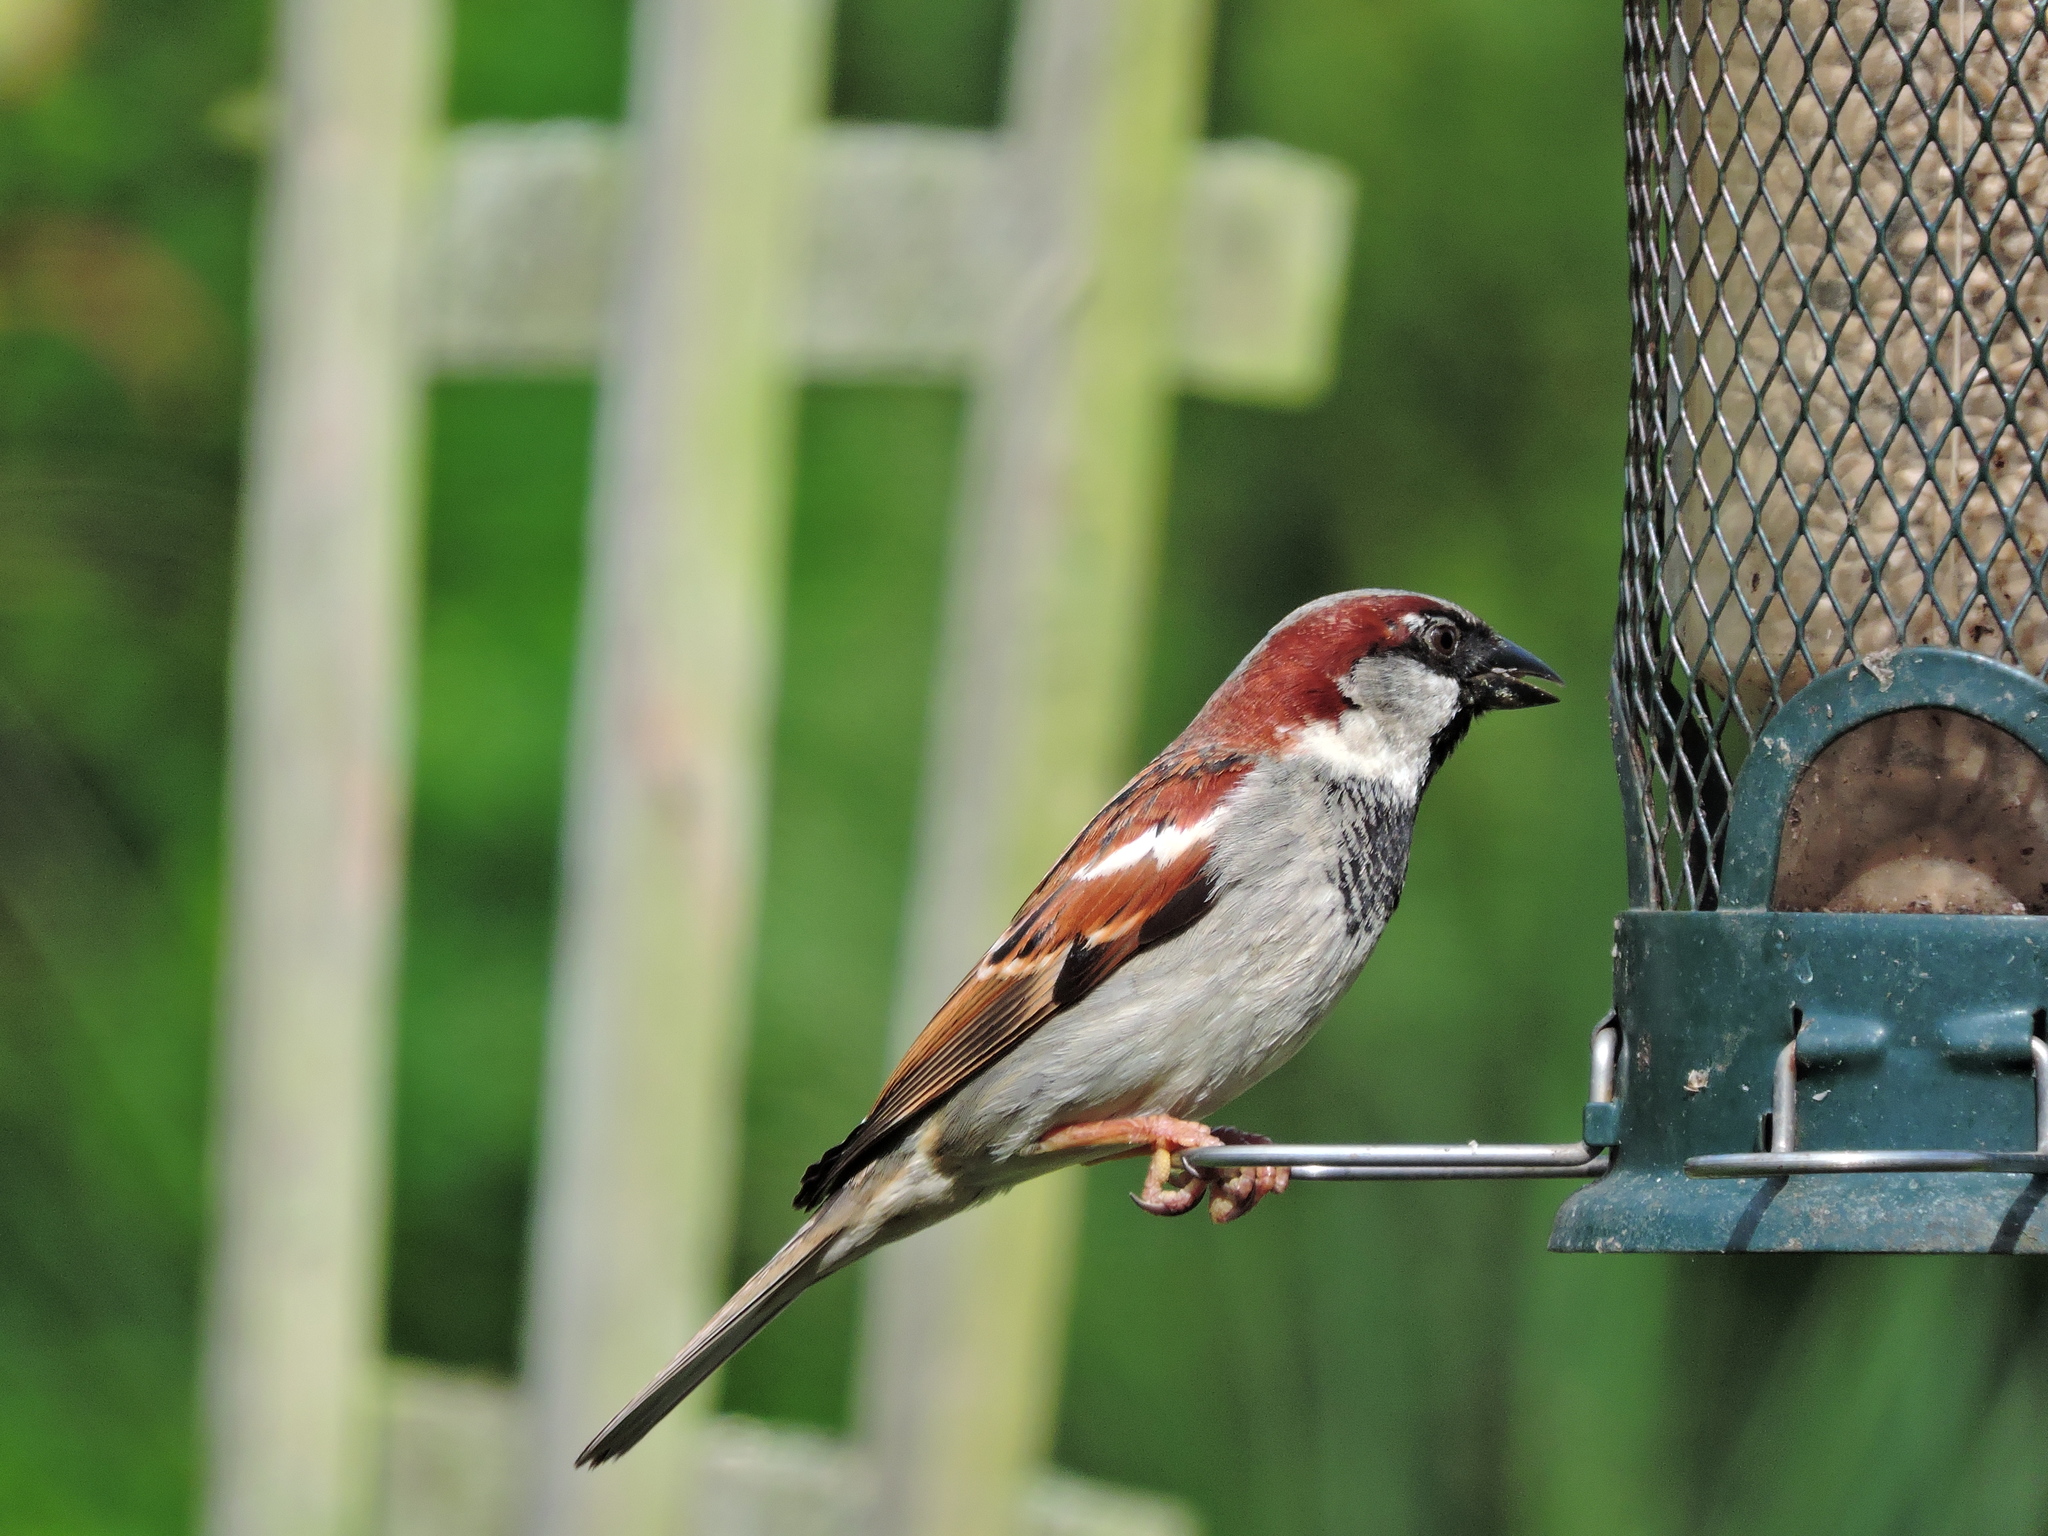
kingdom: Animalia
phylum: Chordata
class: Aves
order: Passeriformes
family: Passeridae
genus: Passer
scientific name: Passer domesticus
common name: House sparrow
